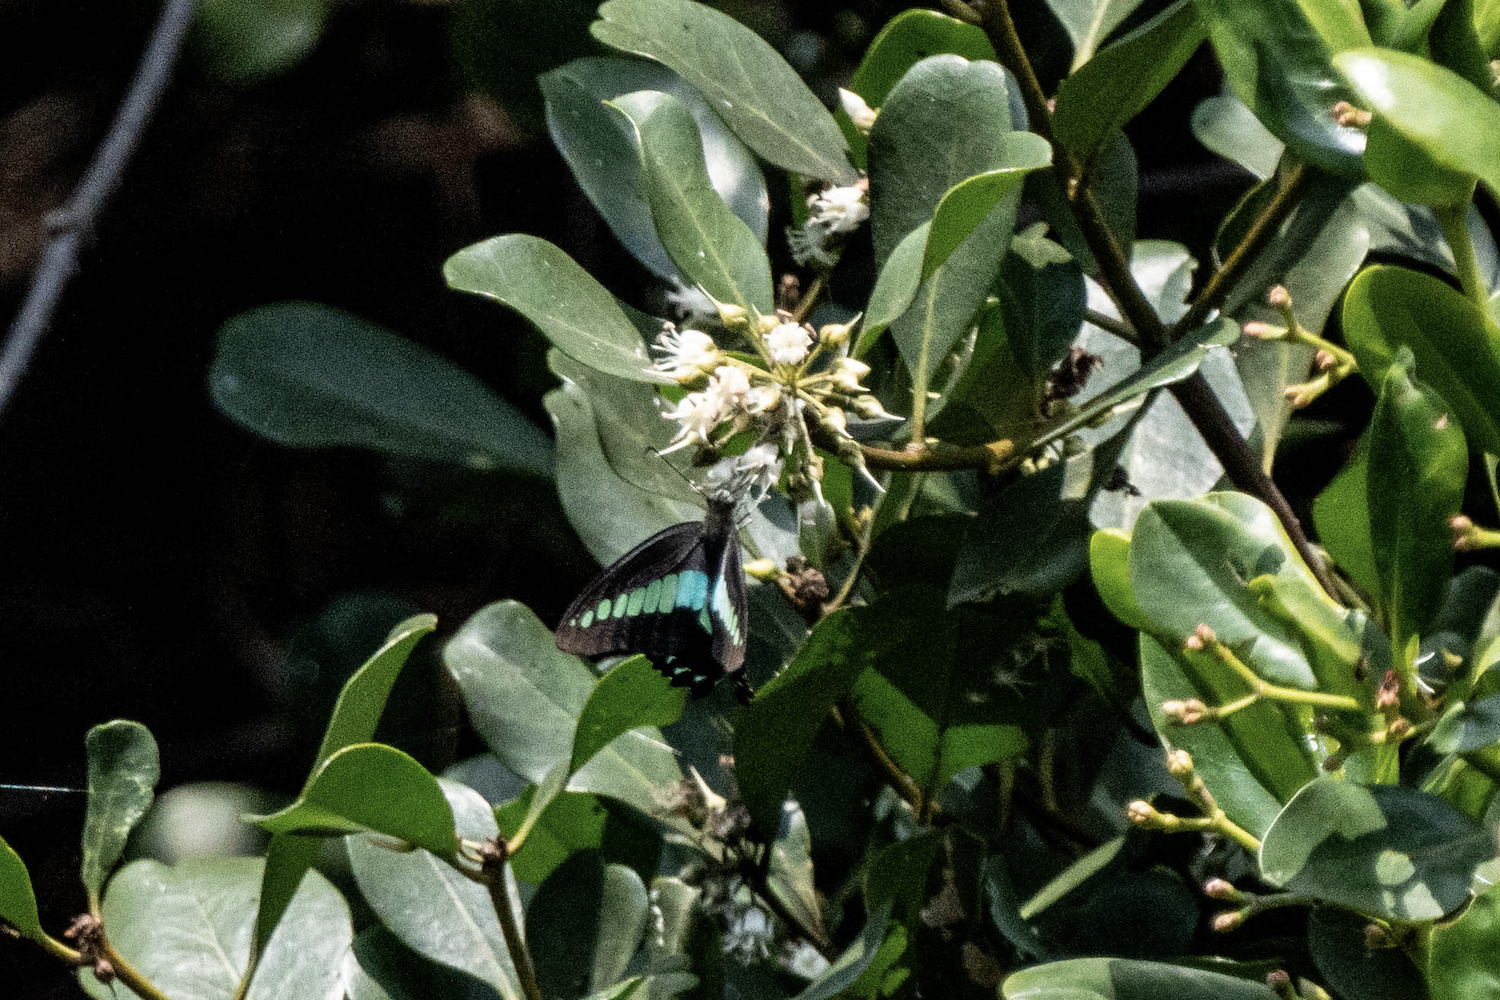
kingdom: Fungi
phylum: Ascomycota
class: Sordariomycetes
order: Microascales
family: Microascaceae
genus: Graphium
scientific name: Graphium sarpedon
